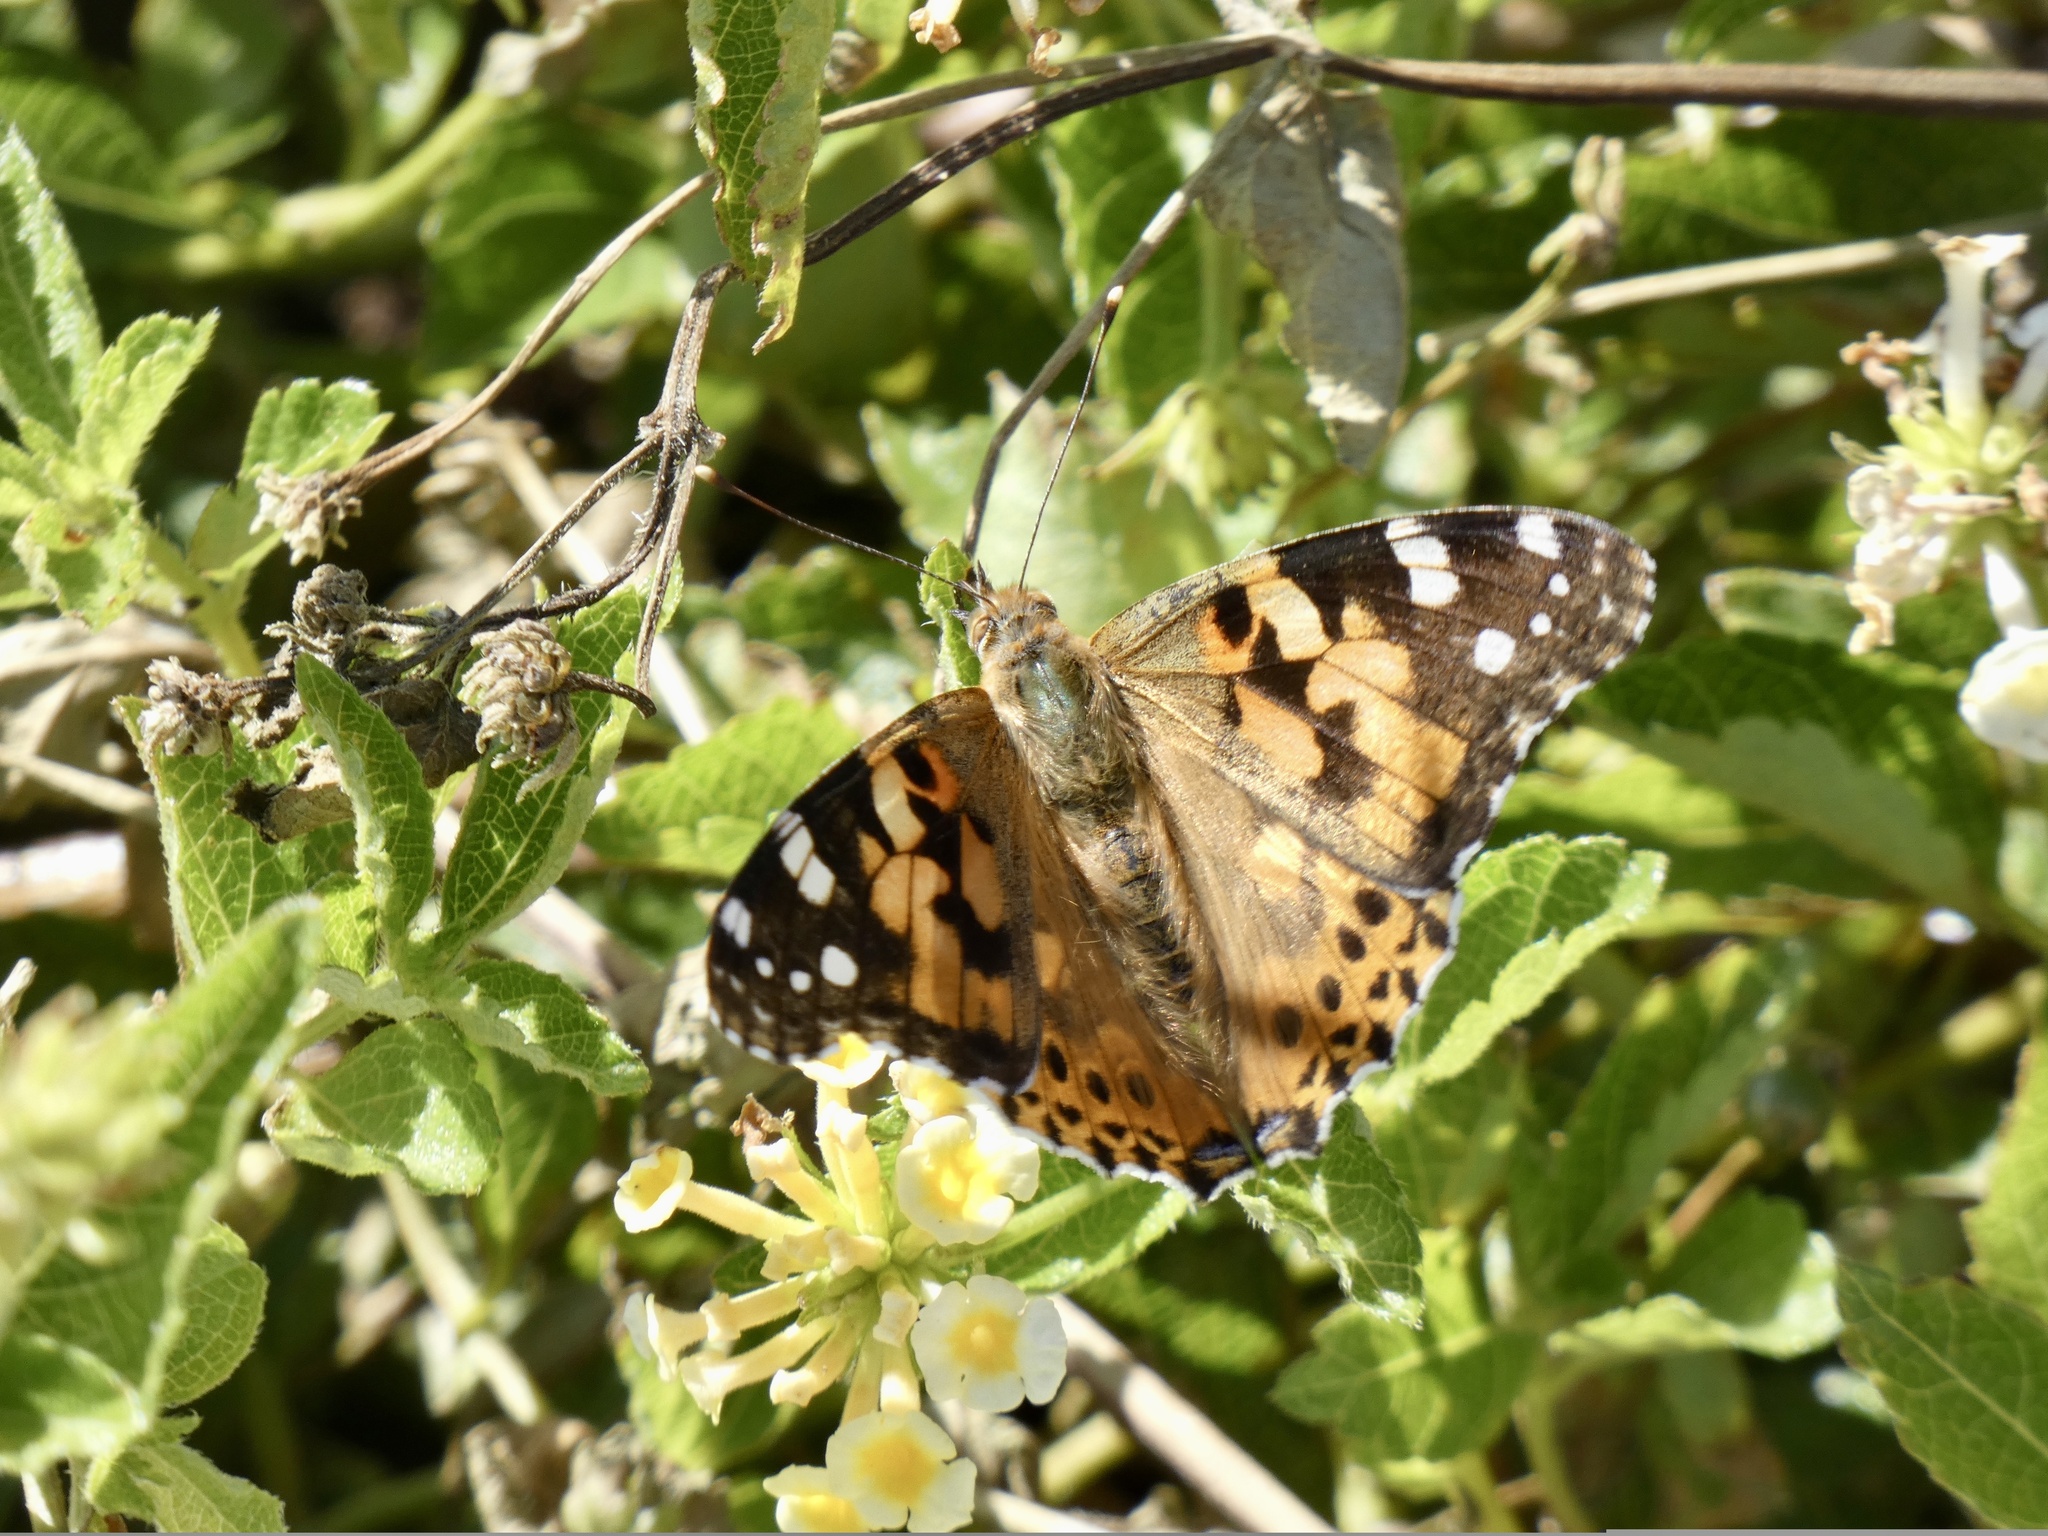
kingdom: Animalia
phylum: Arthropoda
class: Insecta
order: Lepidoptera
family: Nymphalidae
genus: Vanessa
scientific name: Vanessa cardui
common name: Painted lady
